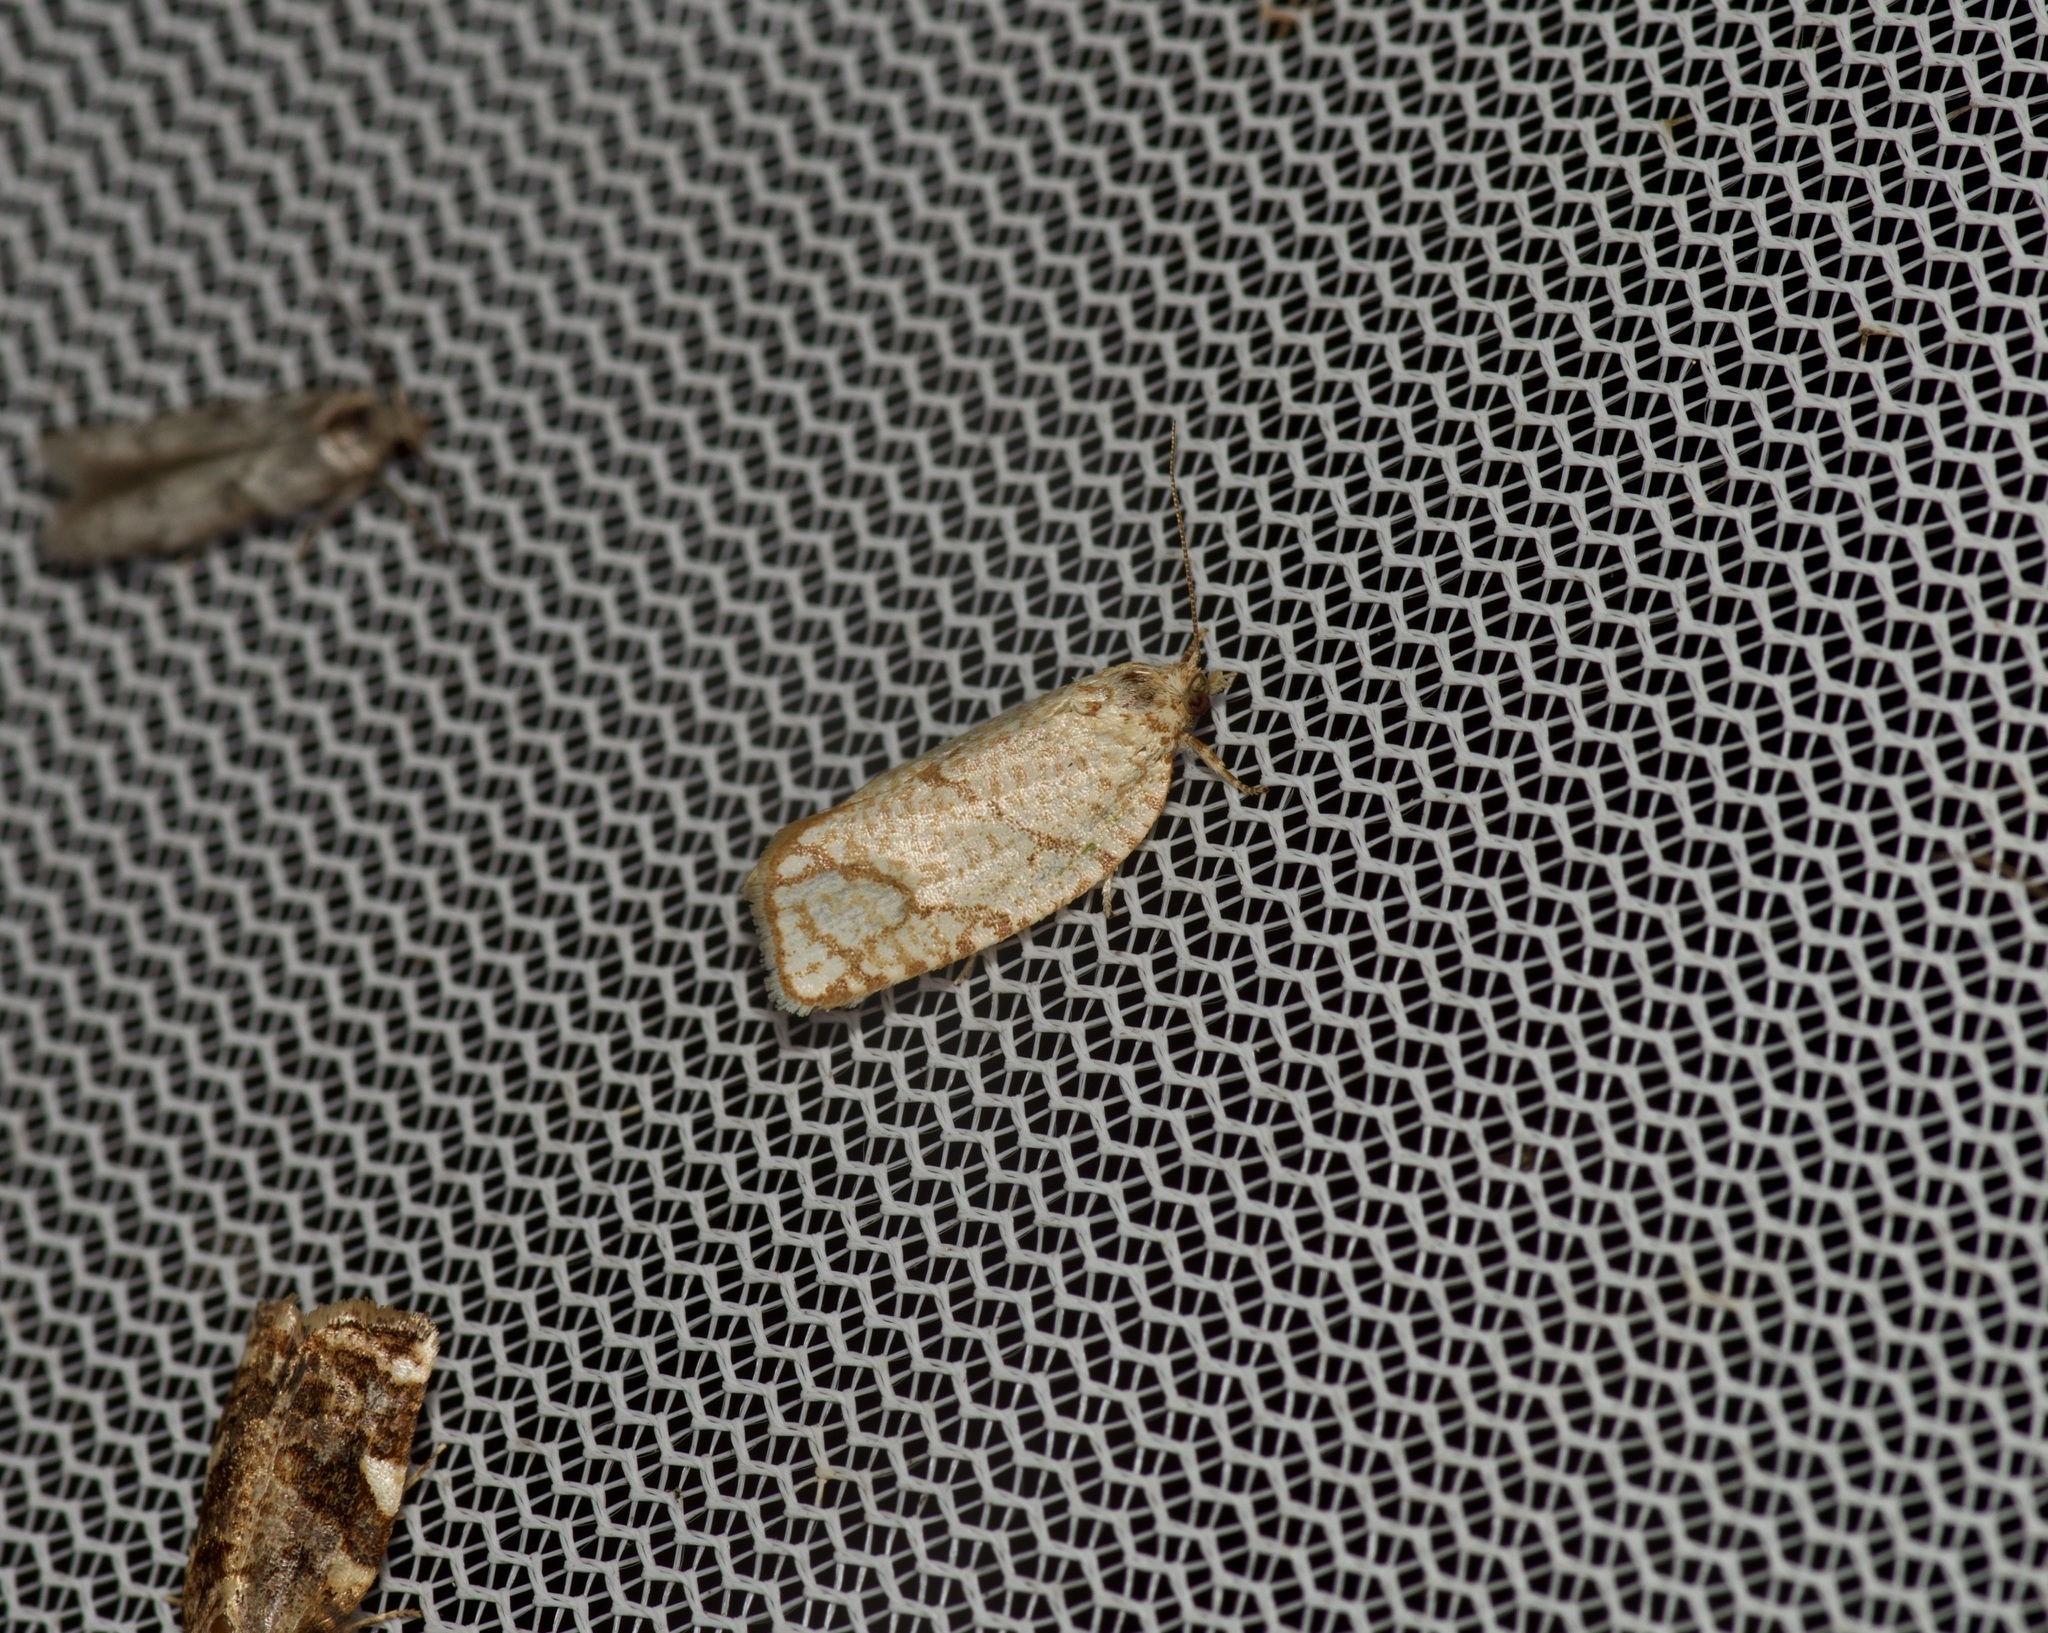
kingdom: Animalia
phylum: Arthropoda
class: Insecta
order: Lepidoptera
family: Tortricidae
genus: Argyrotaenia
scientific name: Argyrotaenia quercifoliana
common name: Yellow-winged oak leafroller moth
